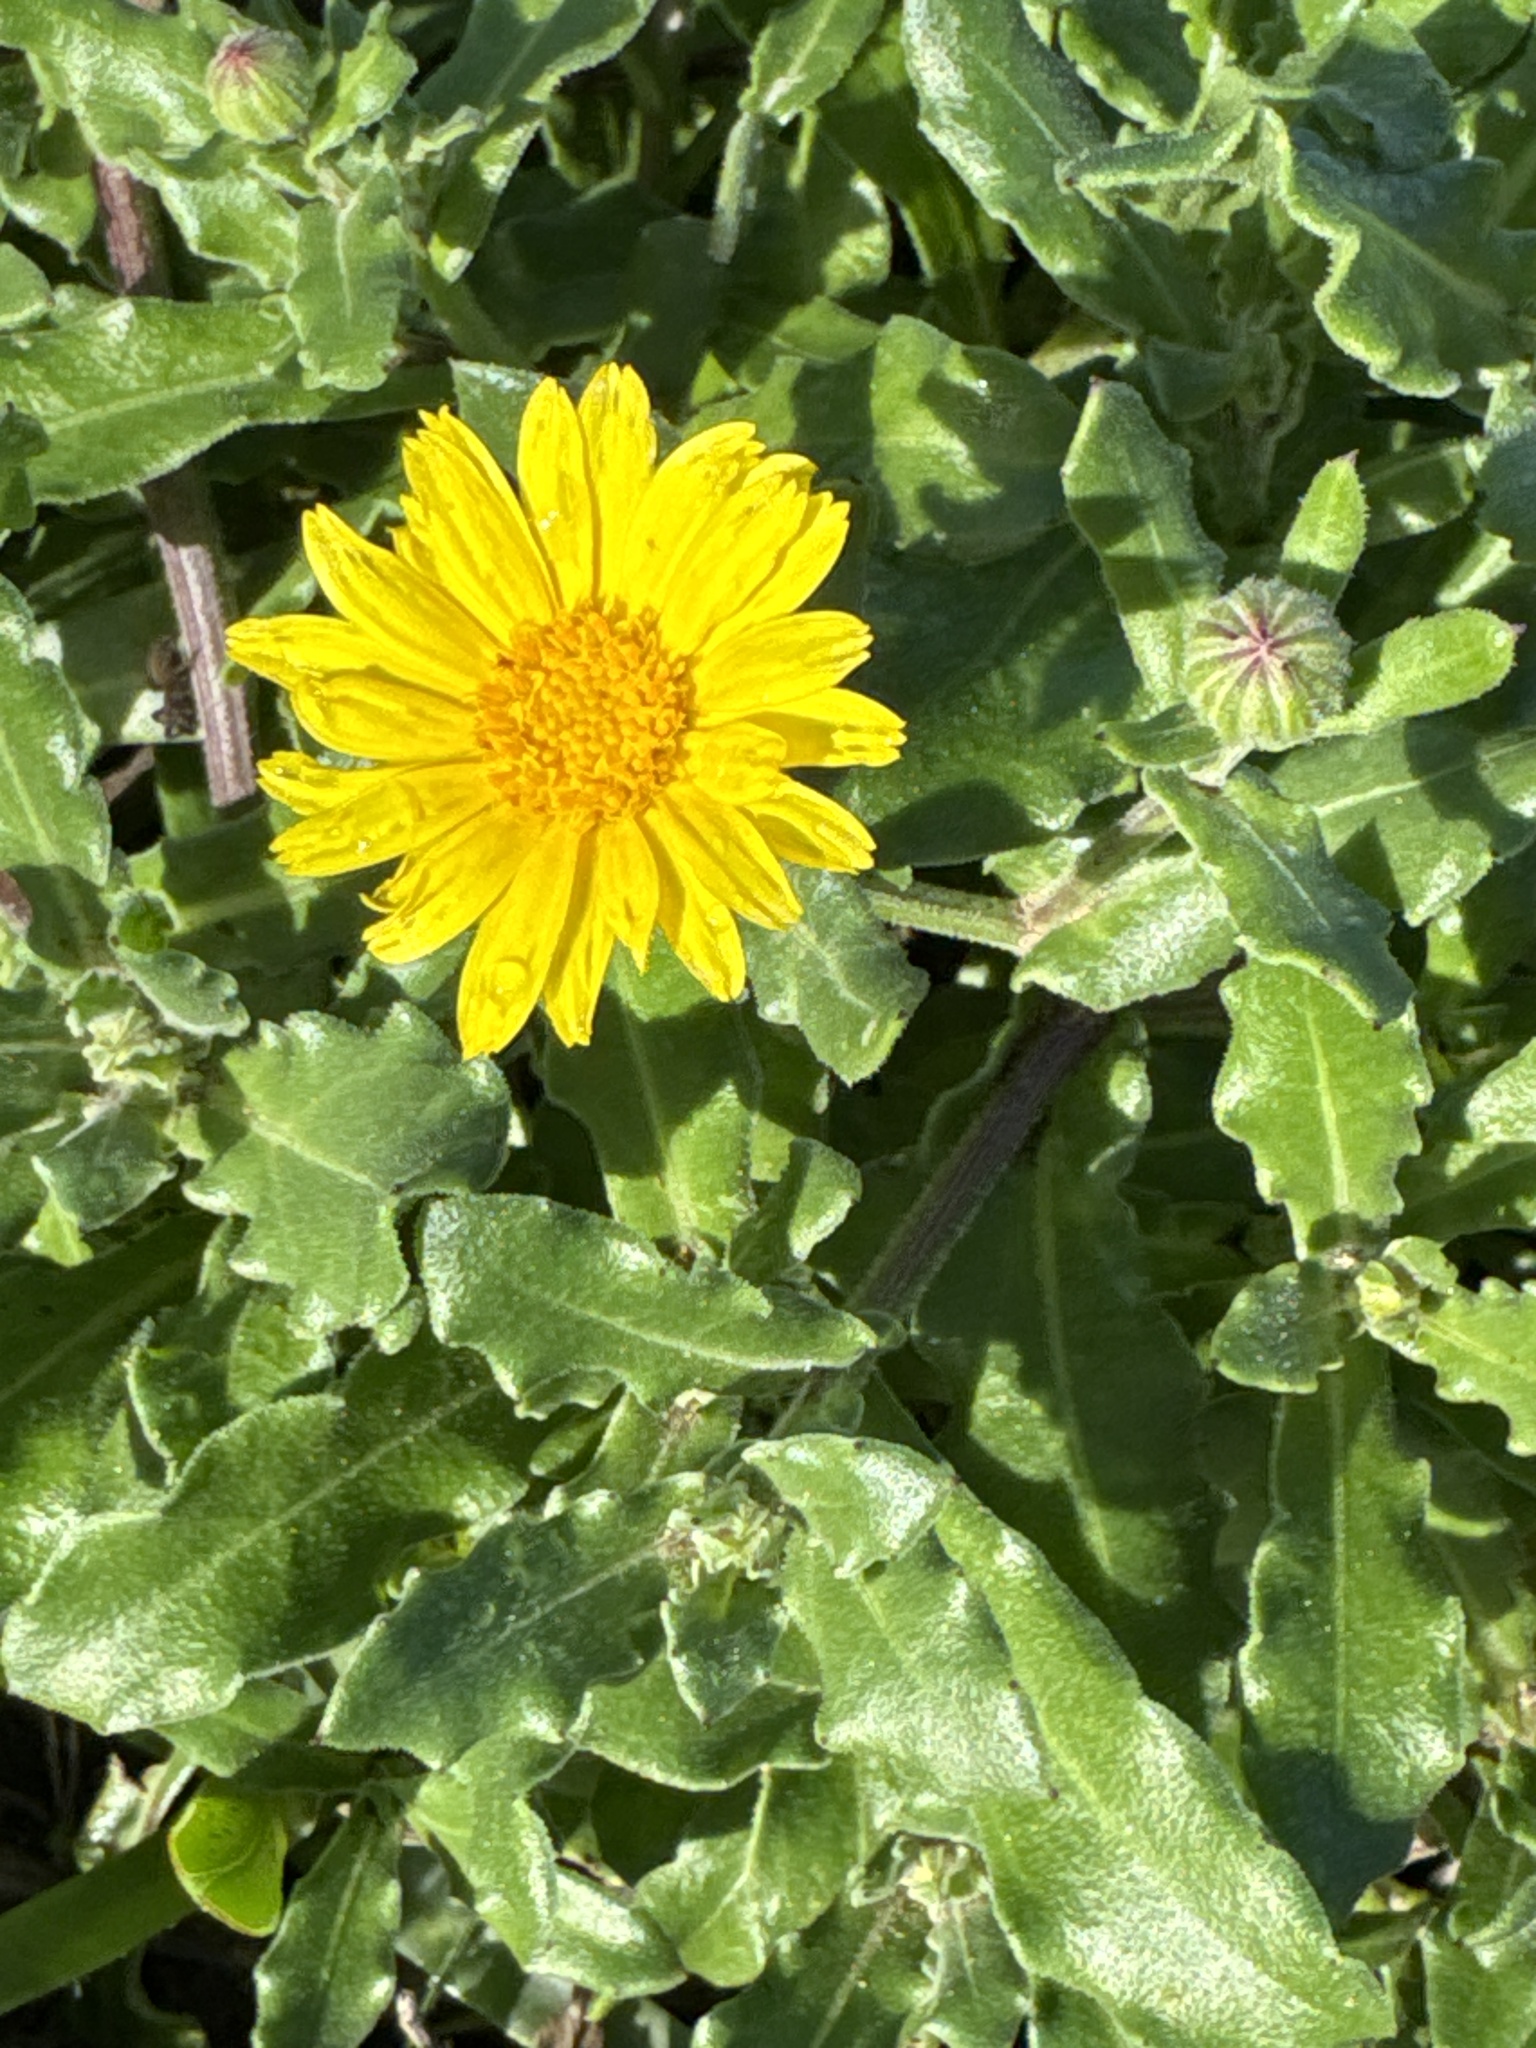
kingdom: Plantae
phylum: Tracheophyta
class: Magnoliopsida
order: Asterales
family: Asteraceae
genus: Calendula
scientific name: Calendula suffruticosa
